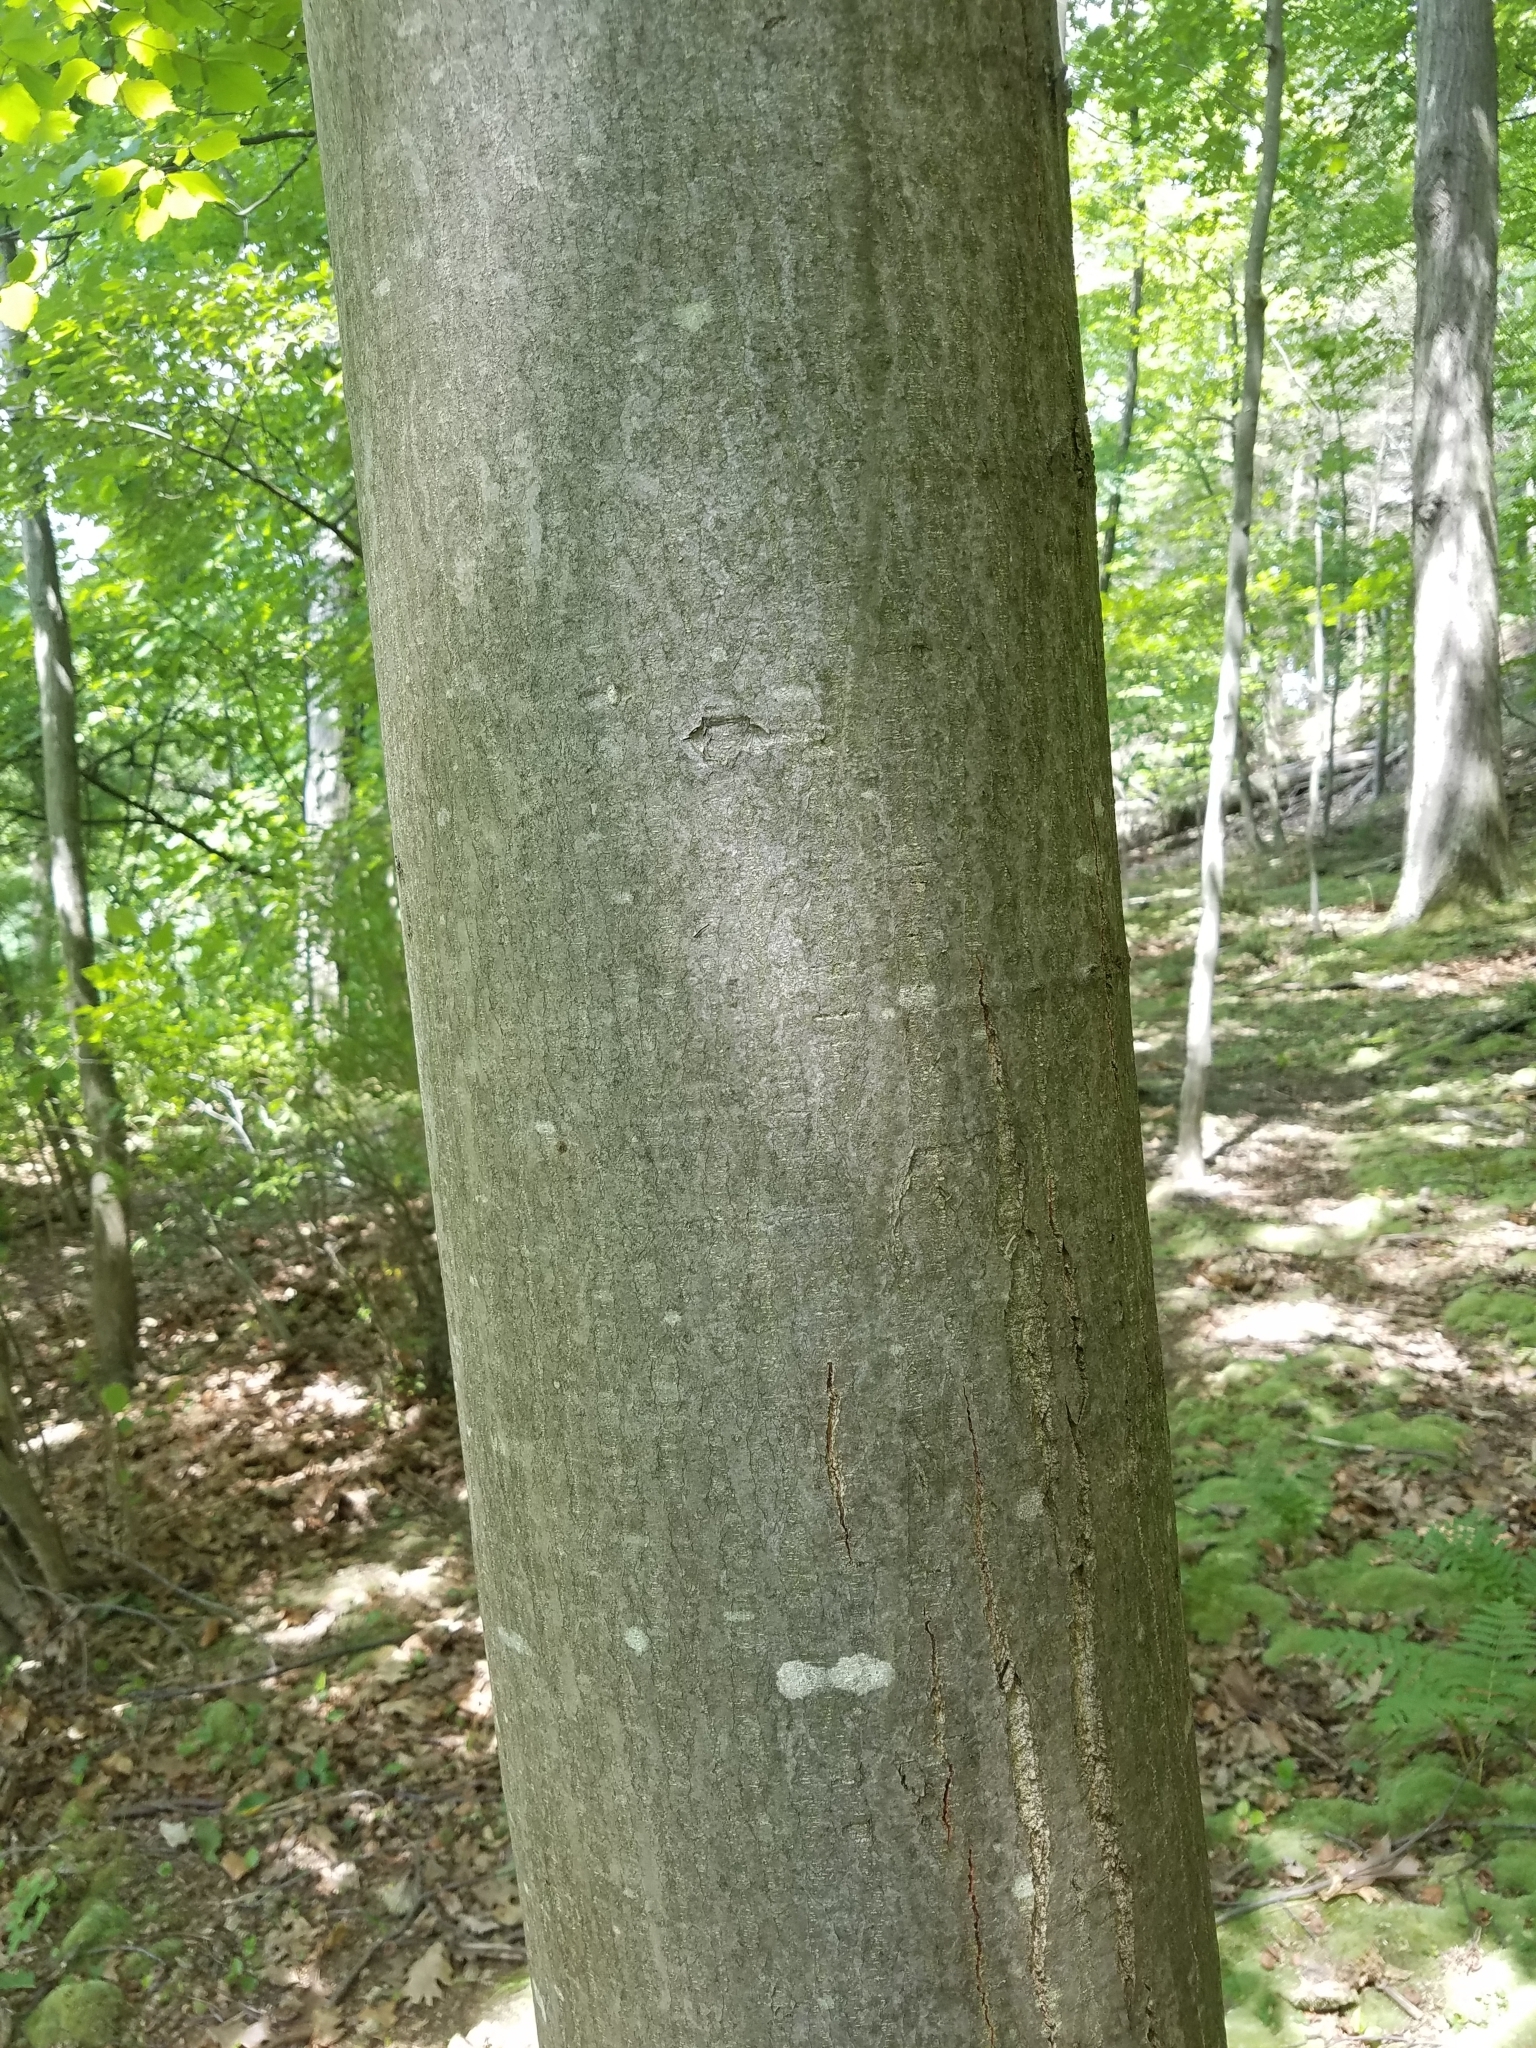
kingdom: Plantae
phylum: Tracheophyta
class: Magnoliopsida
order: Fagales
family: Fagaceae
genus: Castanea
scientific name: Castanea dentata
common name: American chestnut
